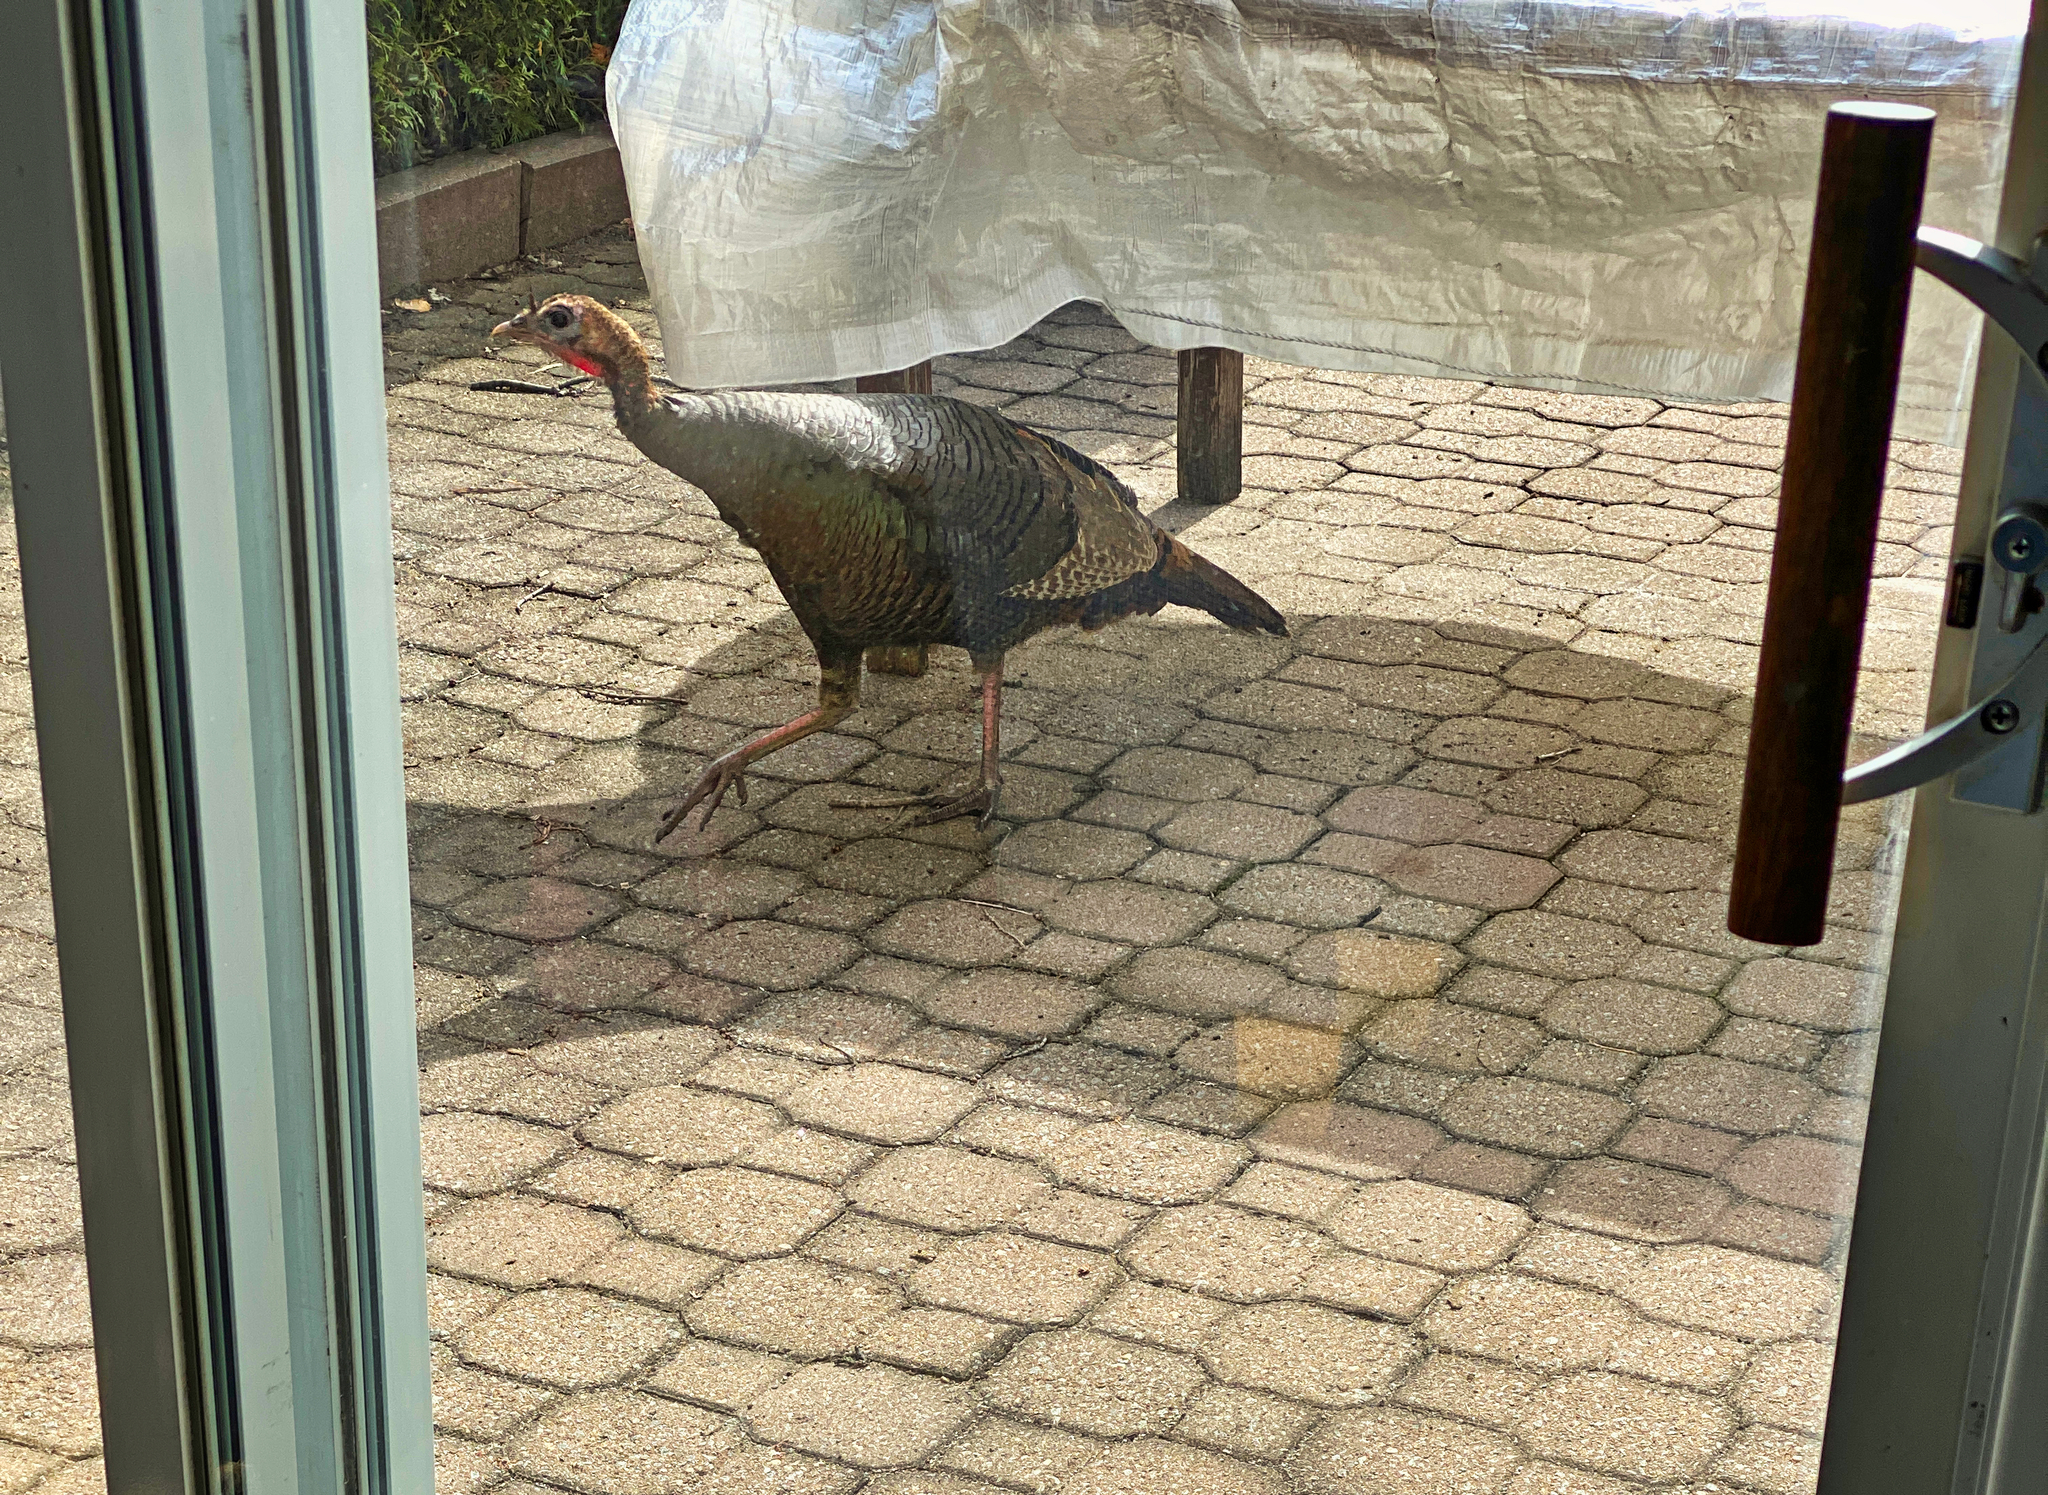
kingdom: Animalia
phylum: Chordata
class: Aves
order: Galliformes
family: Phasianidae
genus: Meleagris
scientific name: Meleagris gallopavo
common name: Wild turkey
